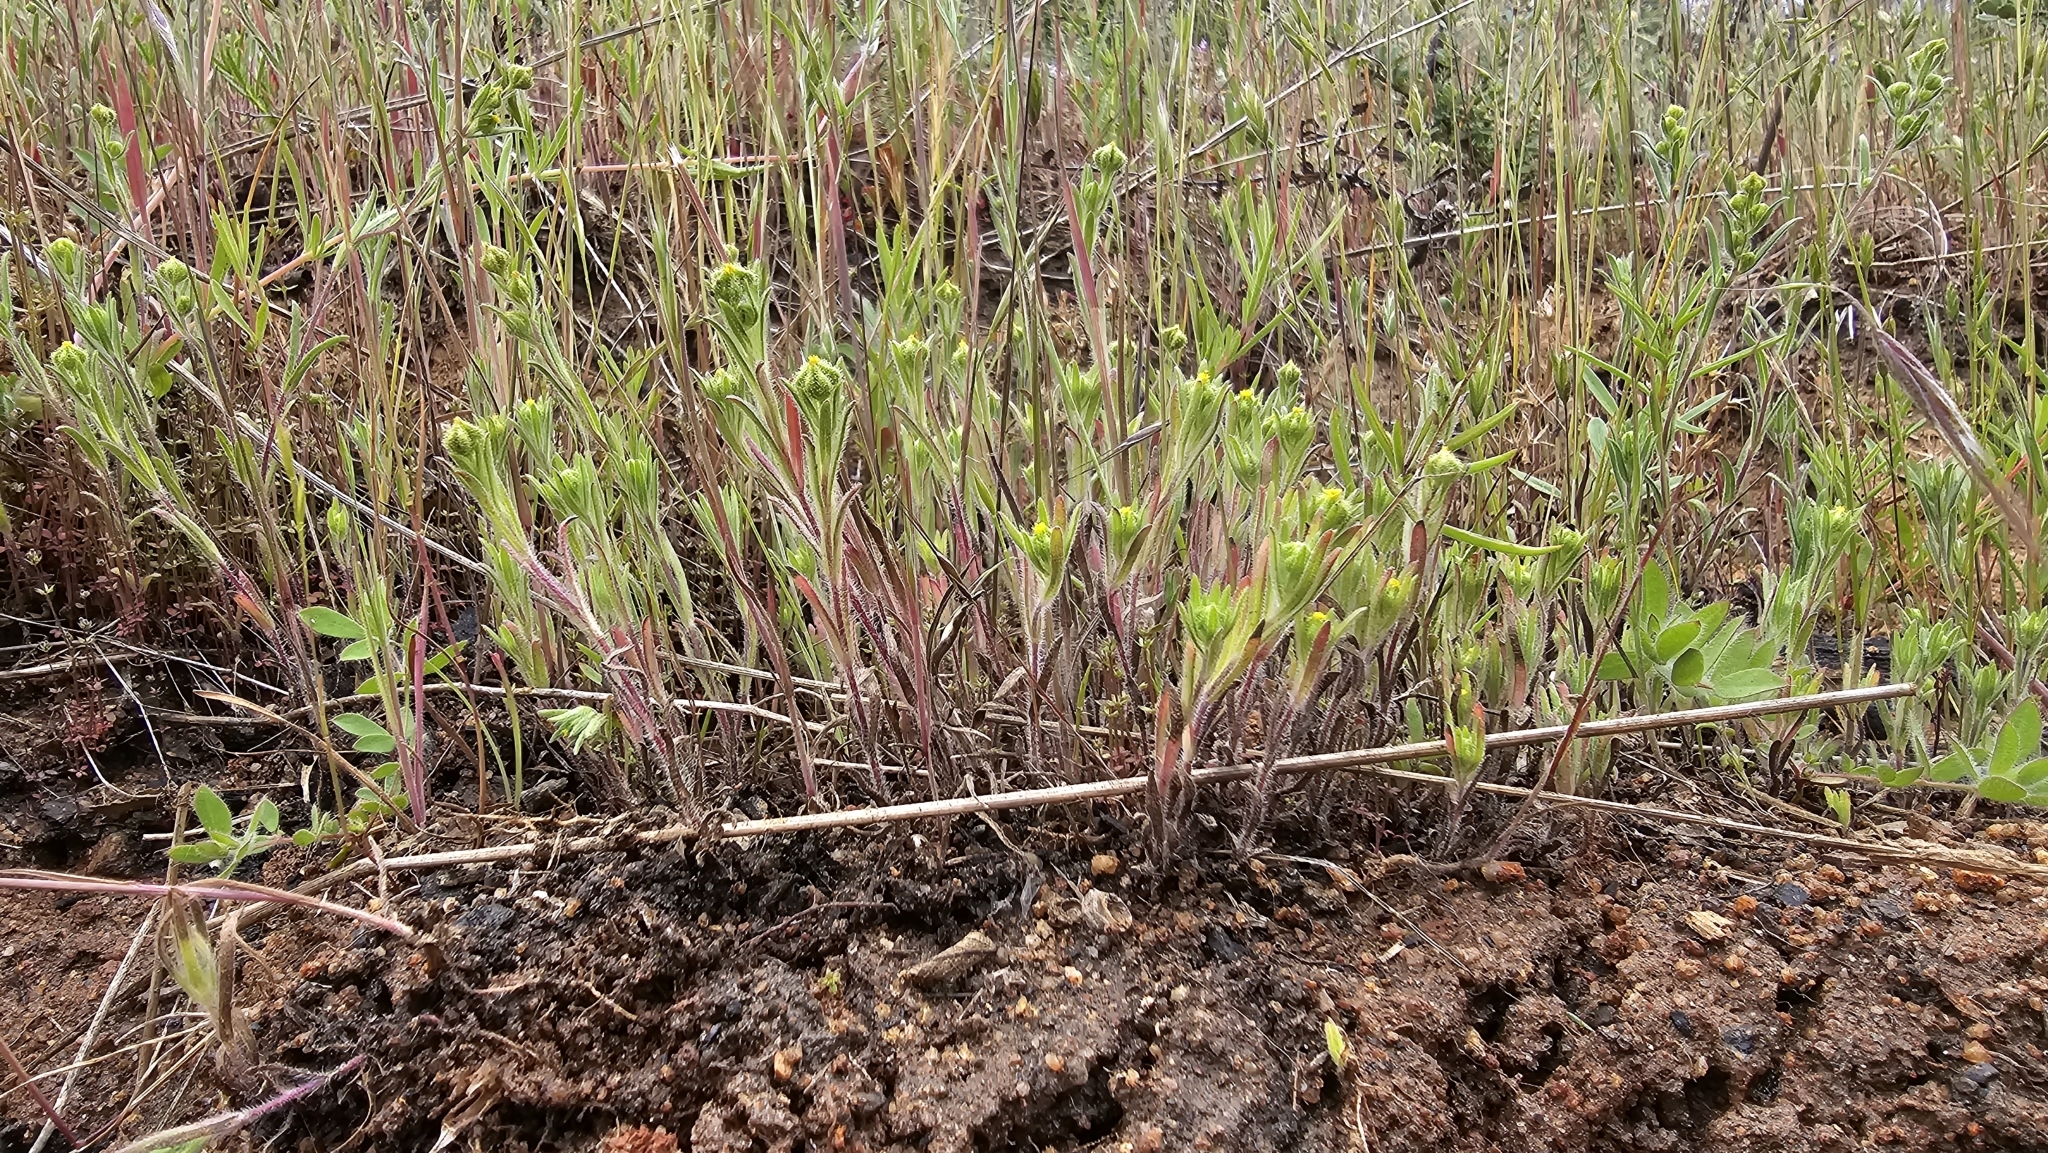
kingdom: Plantae
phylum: Tracheophyta
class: Magnoliopsida
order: Asterales
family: Asteraceae
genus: Madia
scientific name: Madia exigua
